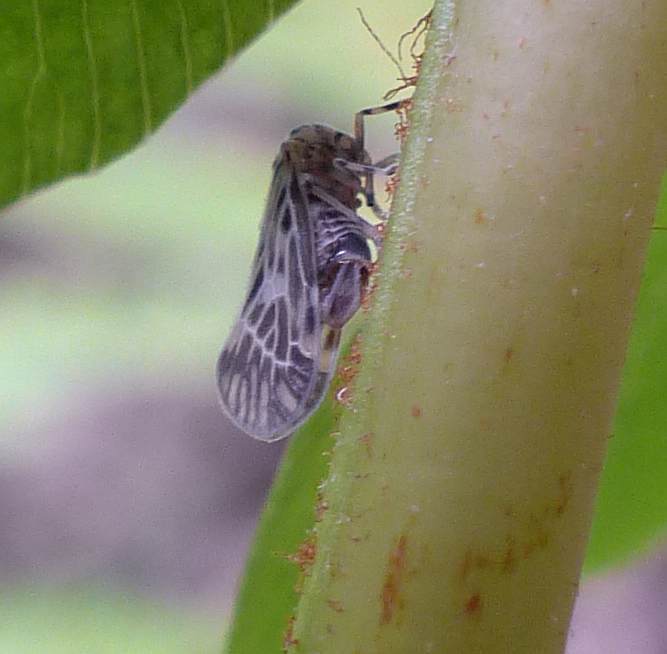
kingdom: Animalia
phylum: Arthropoda
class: Insecta
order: Hemiptera
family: Derbidae
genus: Cedusa
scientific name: Cedusa maculata
